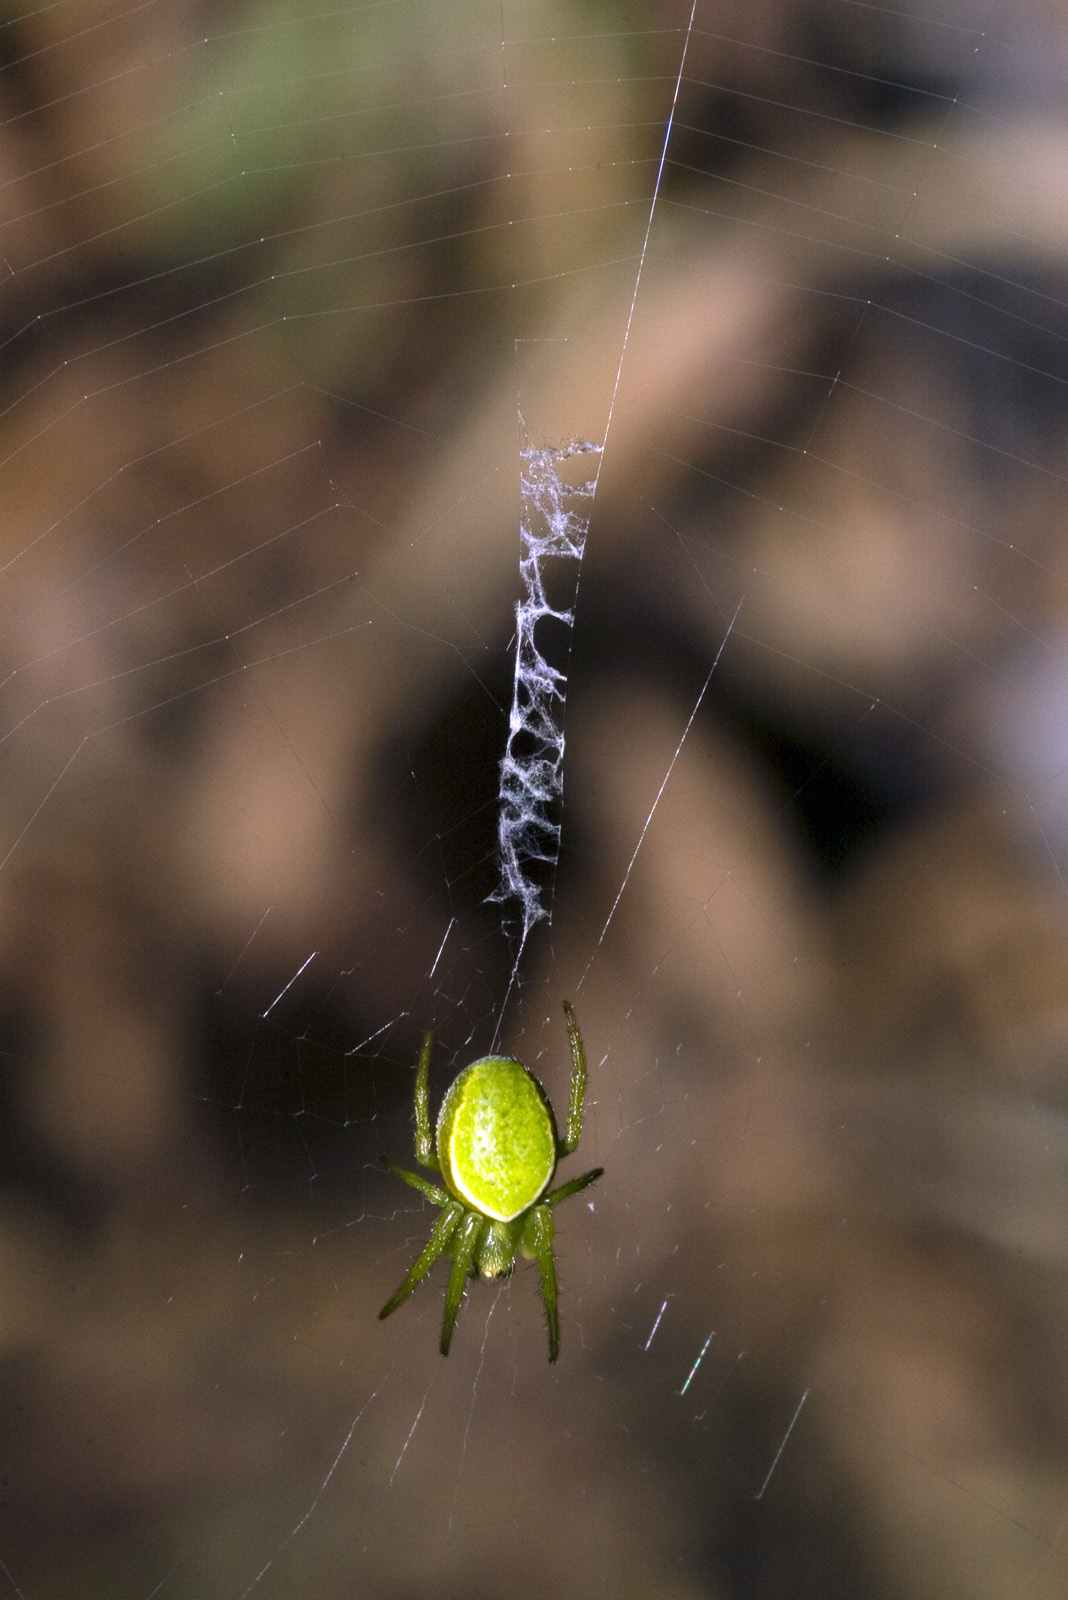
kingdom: Animalia
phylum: Arthropoda
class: Arachnida
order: Araneae
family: Araneidae
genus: Colaranea
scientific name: Colaranea viriditas
